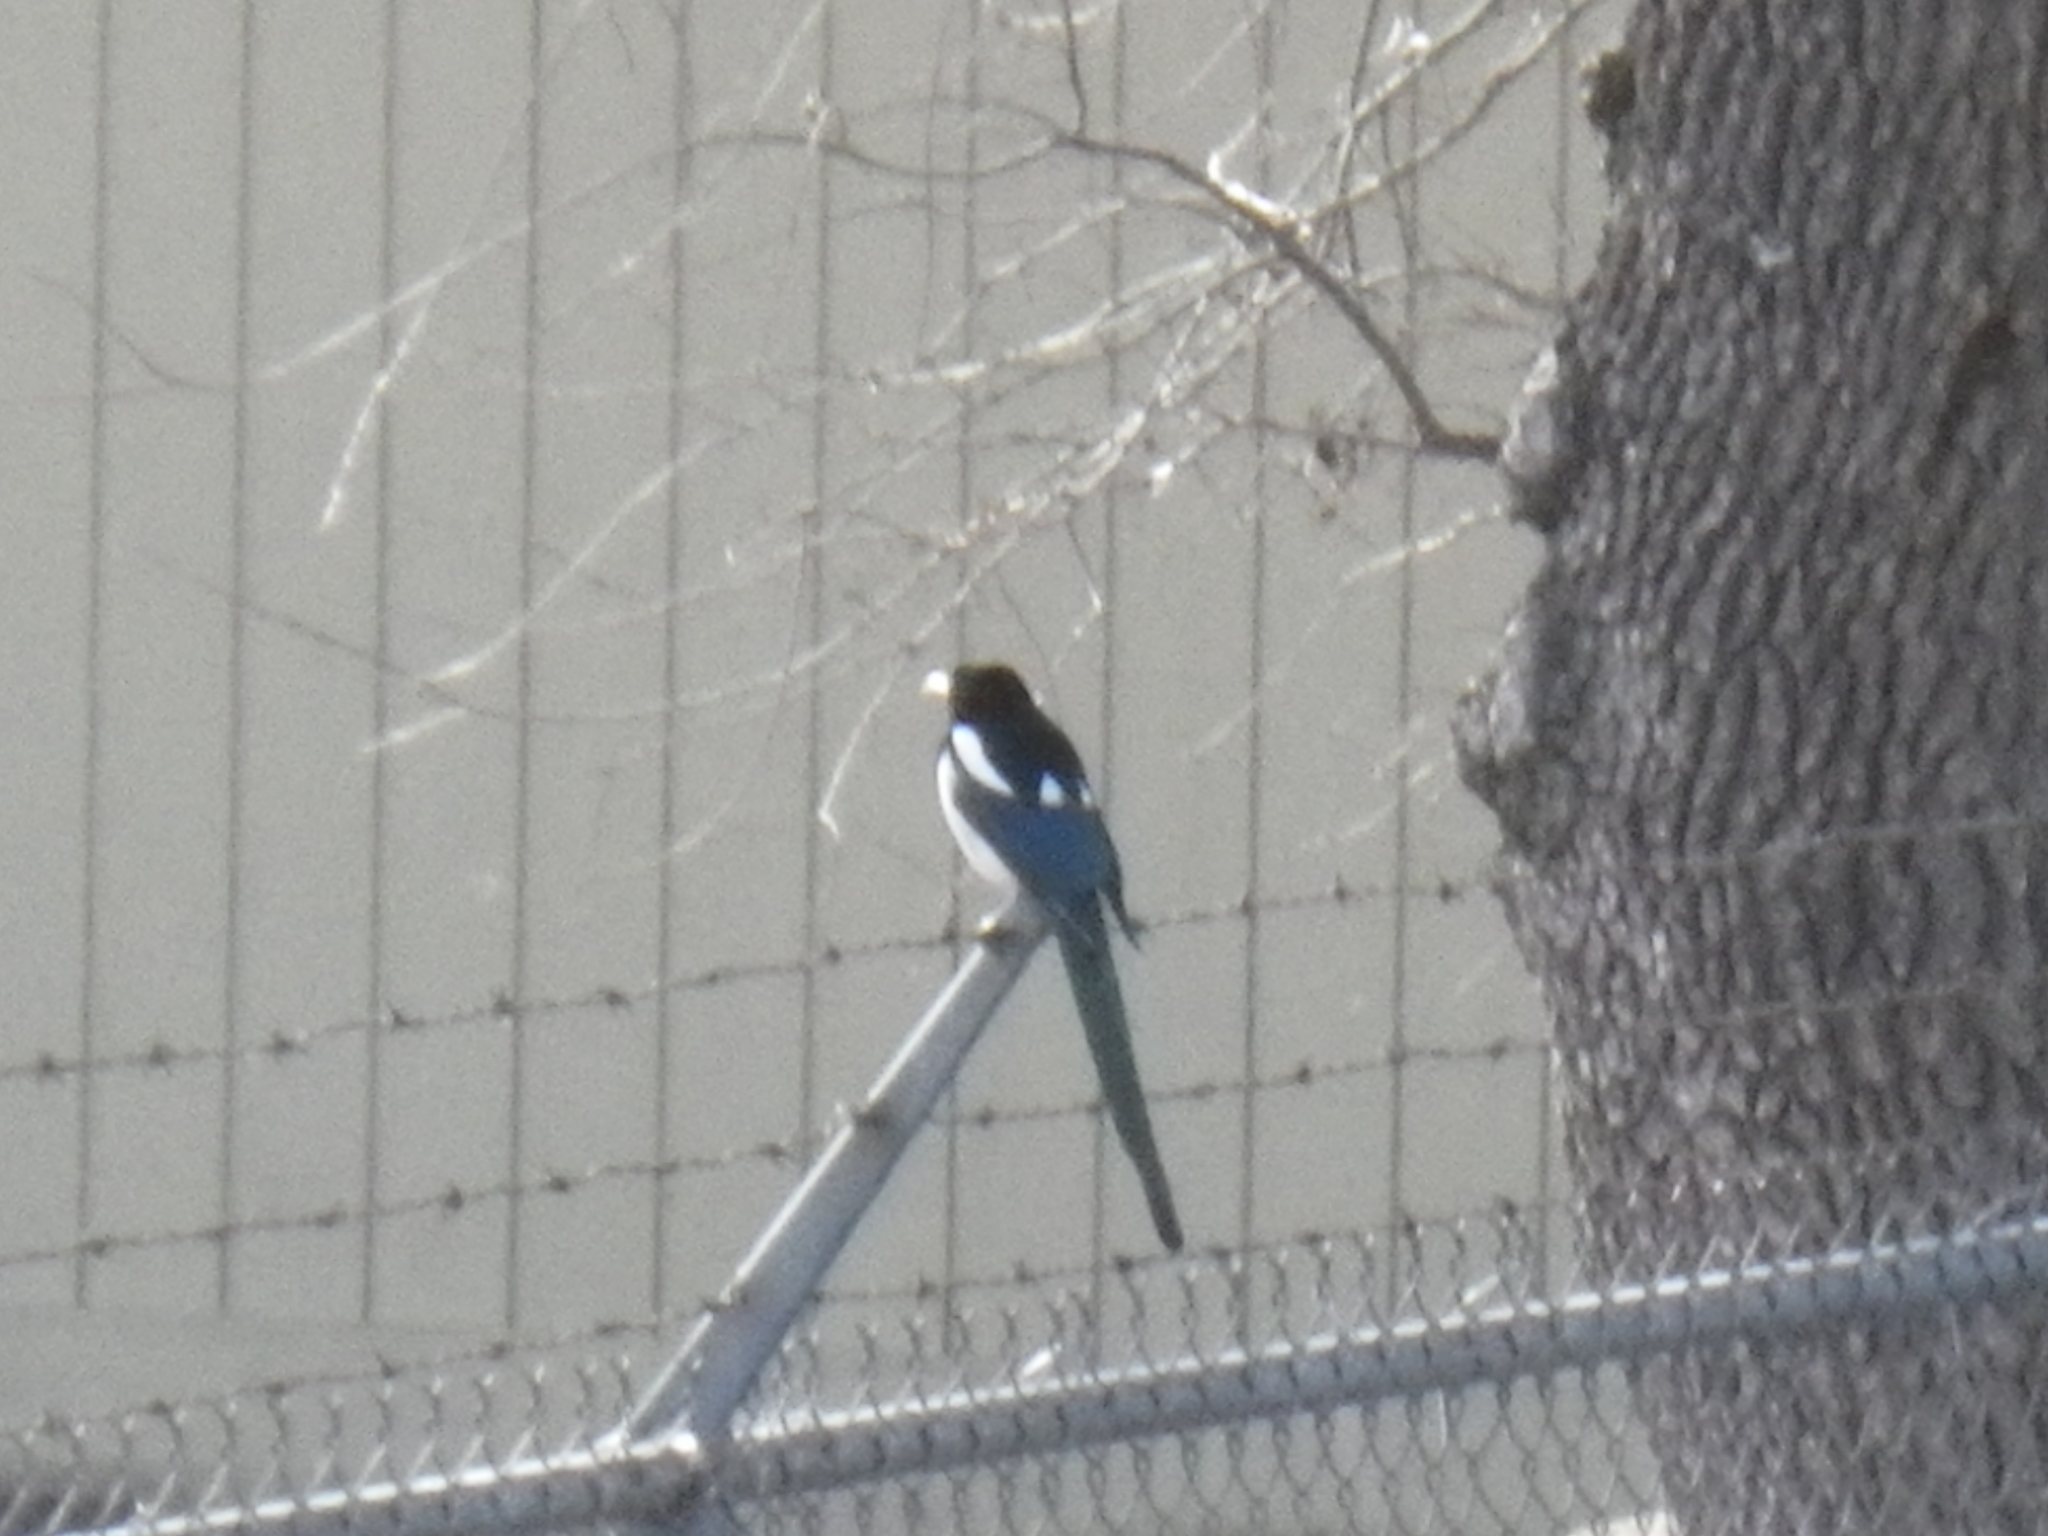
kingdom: Animalia
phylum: Chordata
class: Aves
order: Passeriformes
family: Corvidae
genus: Pica
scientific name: Pica nuttalli
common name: Yellow-billed magpie
